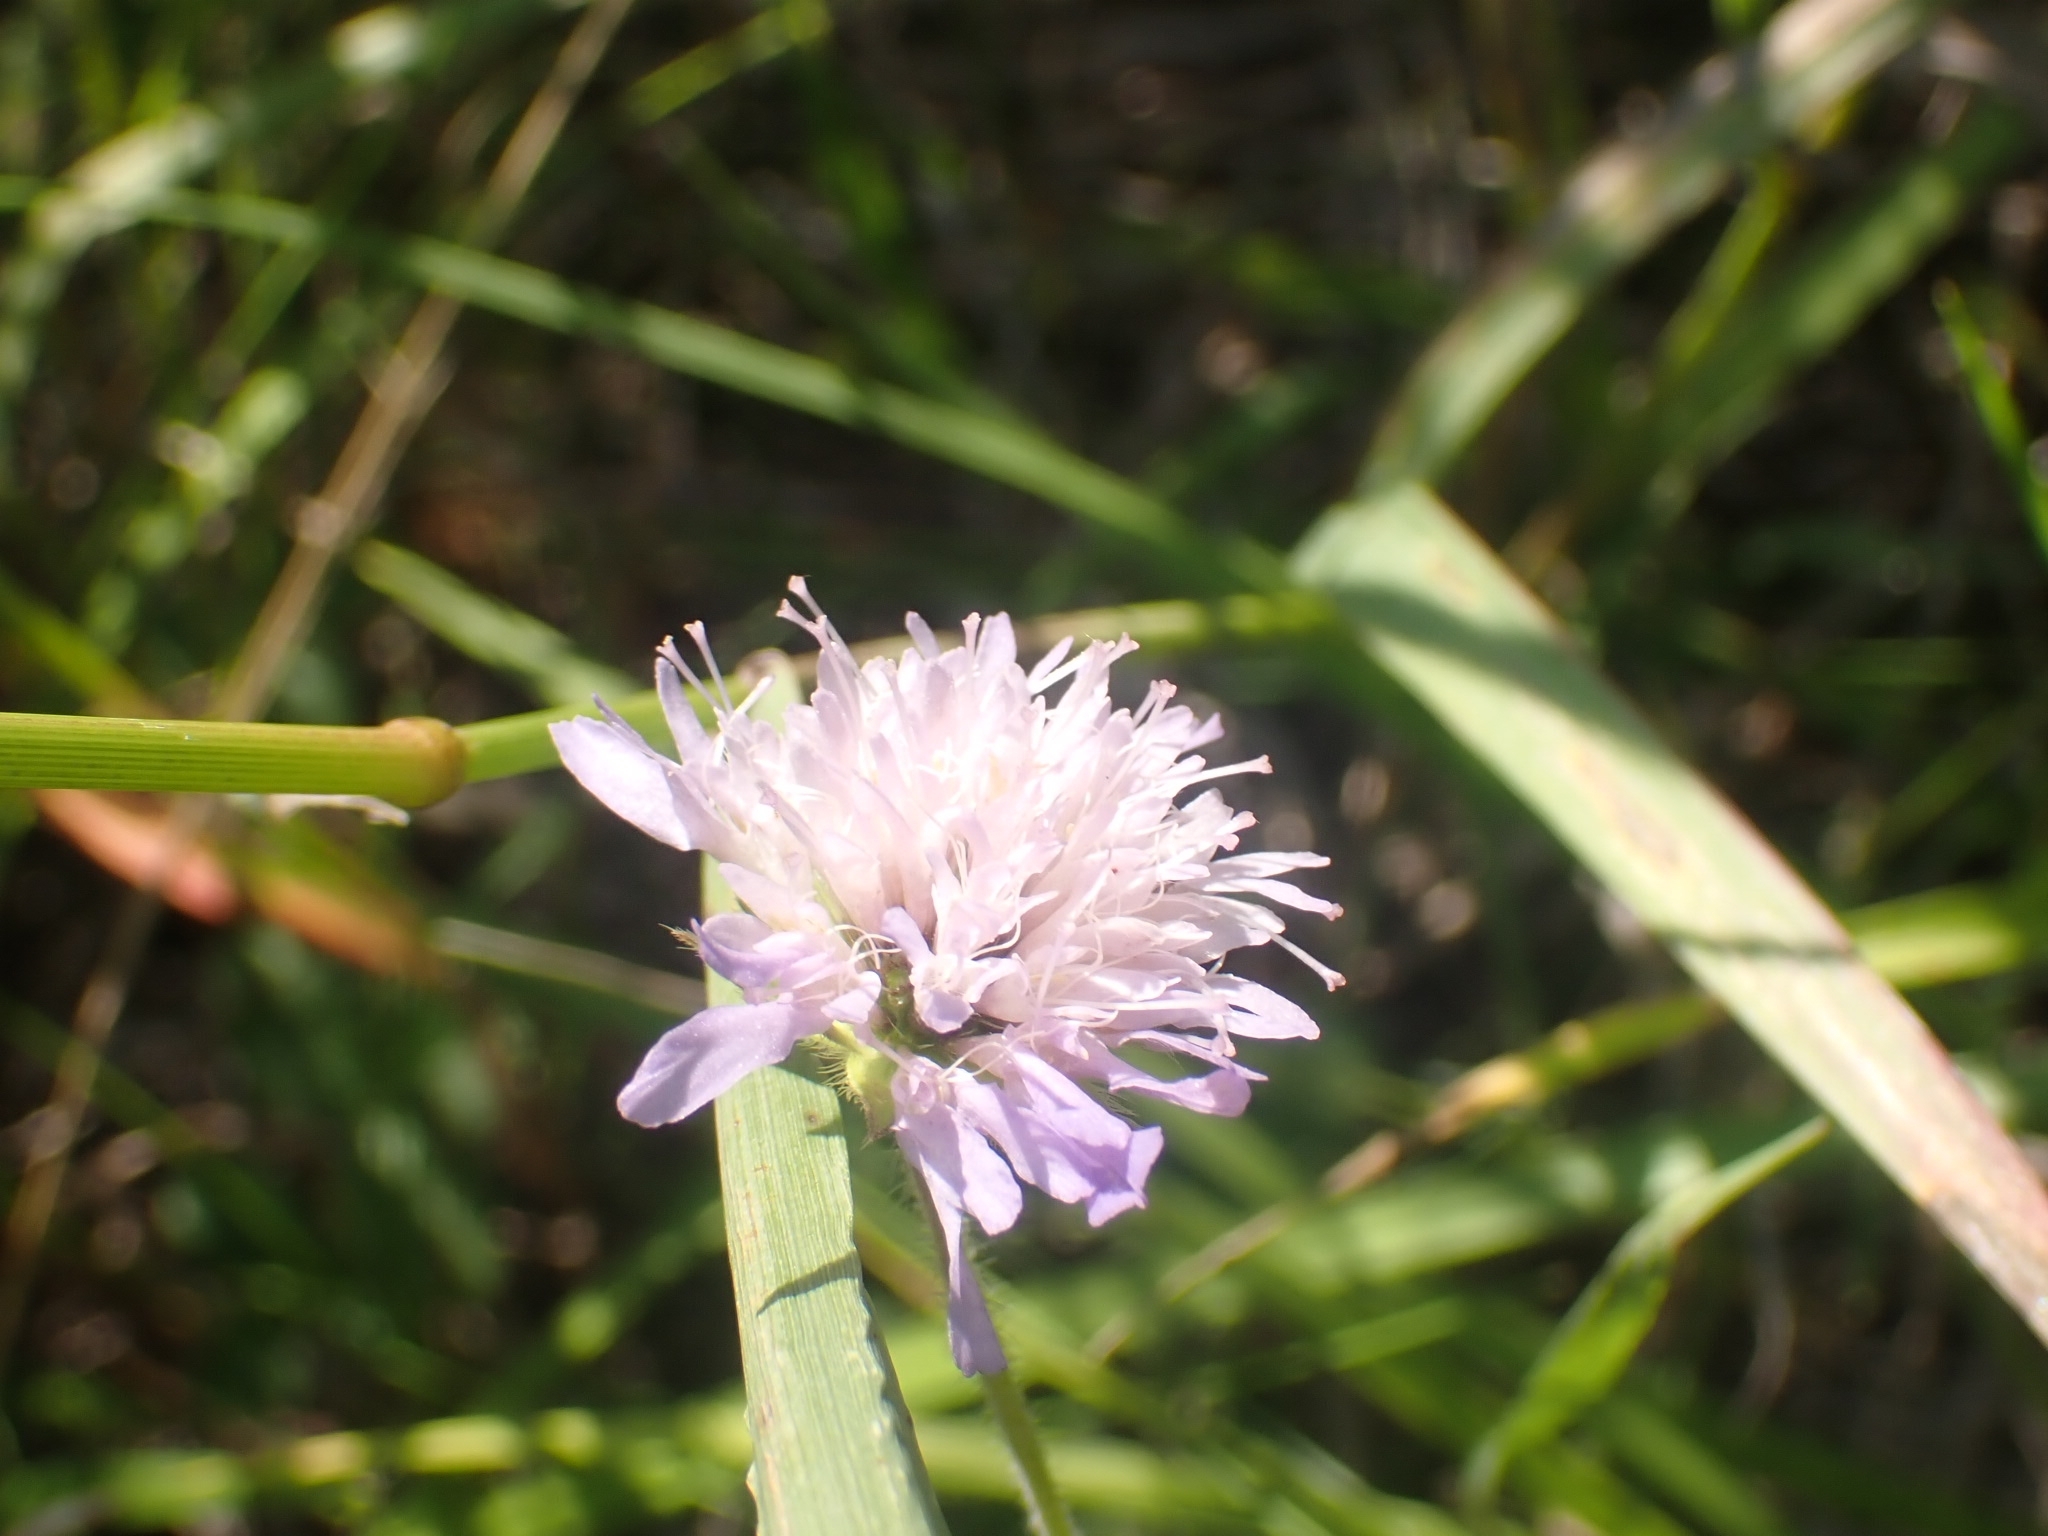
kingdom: Plantae
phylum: Tracheophyta
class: Magnoliopsida
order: Dipsacales
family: Caprifoliaceae
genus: Knautia
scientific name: Knautia arvensis
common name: Field scabiosa
